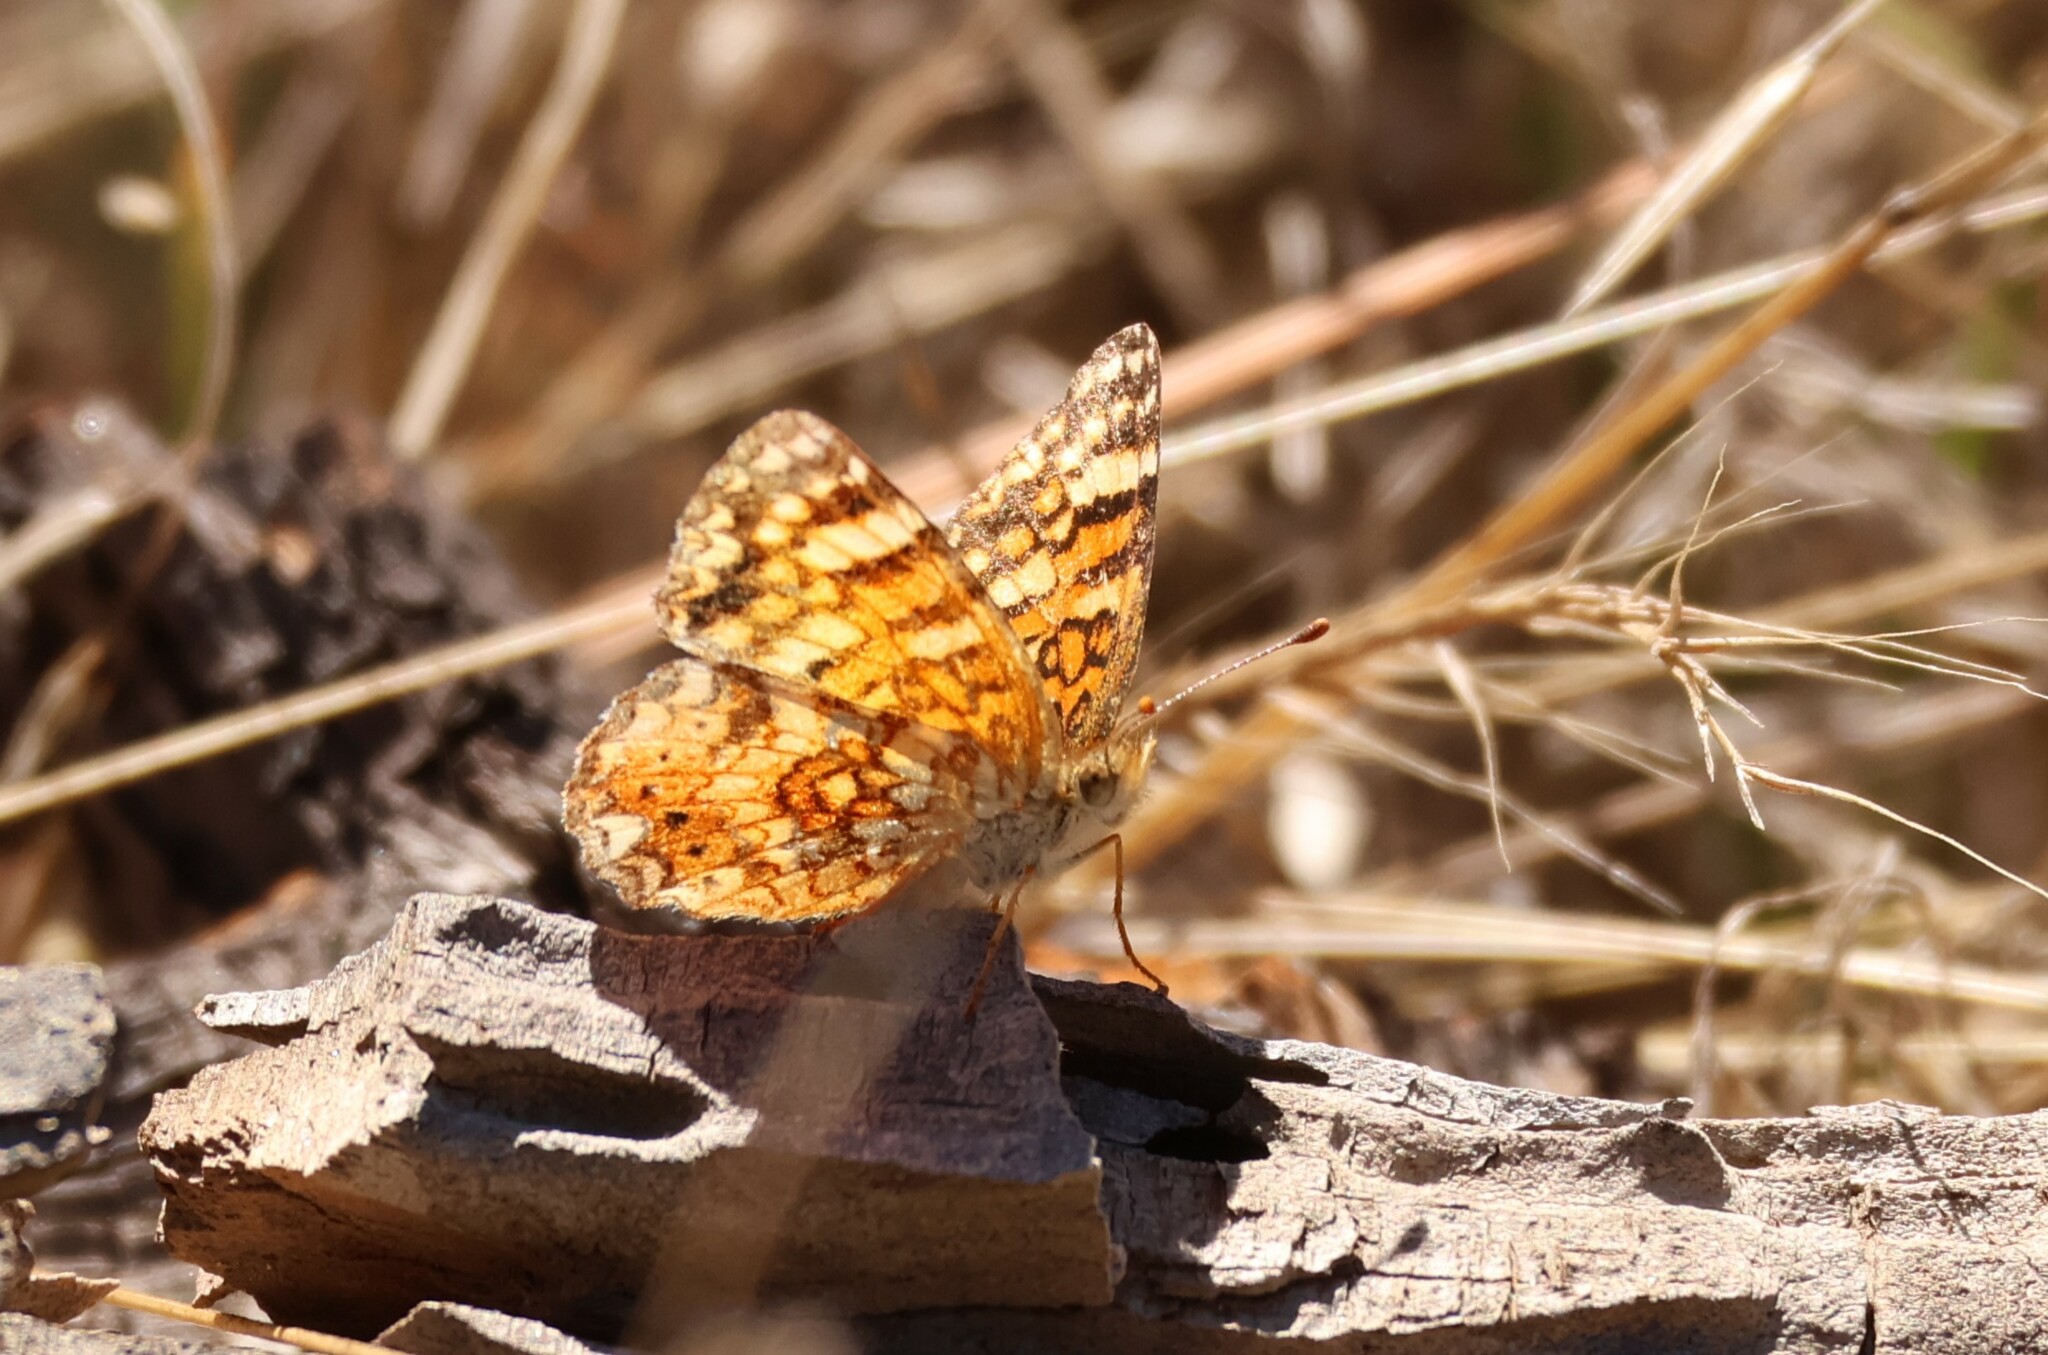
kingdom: Animalia
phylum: Arthropoda
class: Insecta
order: Lepidoptera
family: Nymphalidae
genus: Eresia
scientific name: Eresia aveyrona
